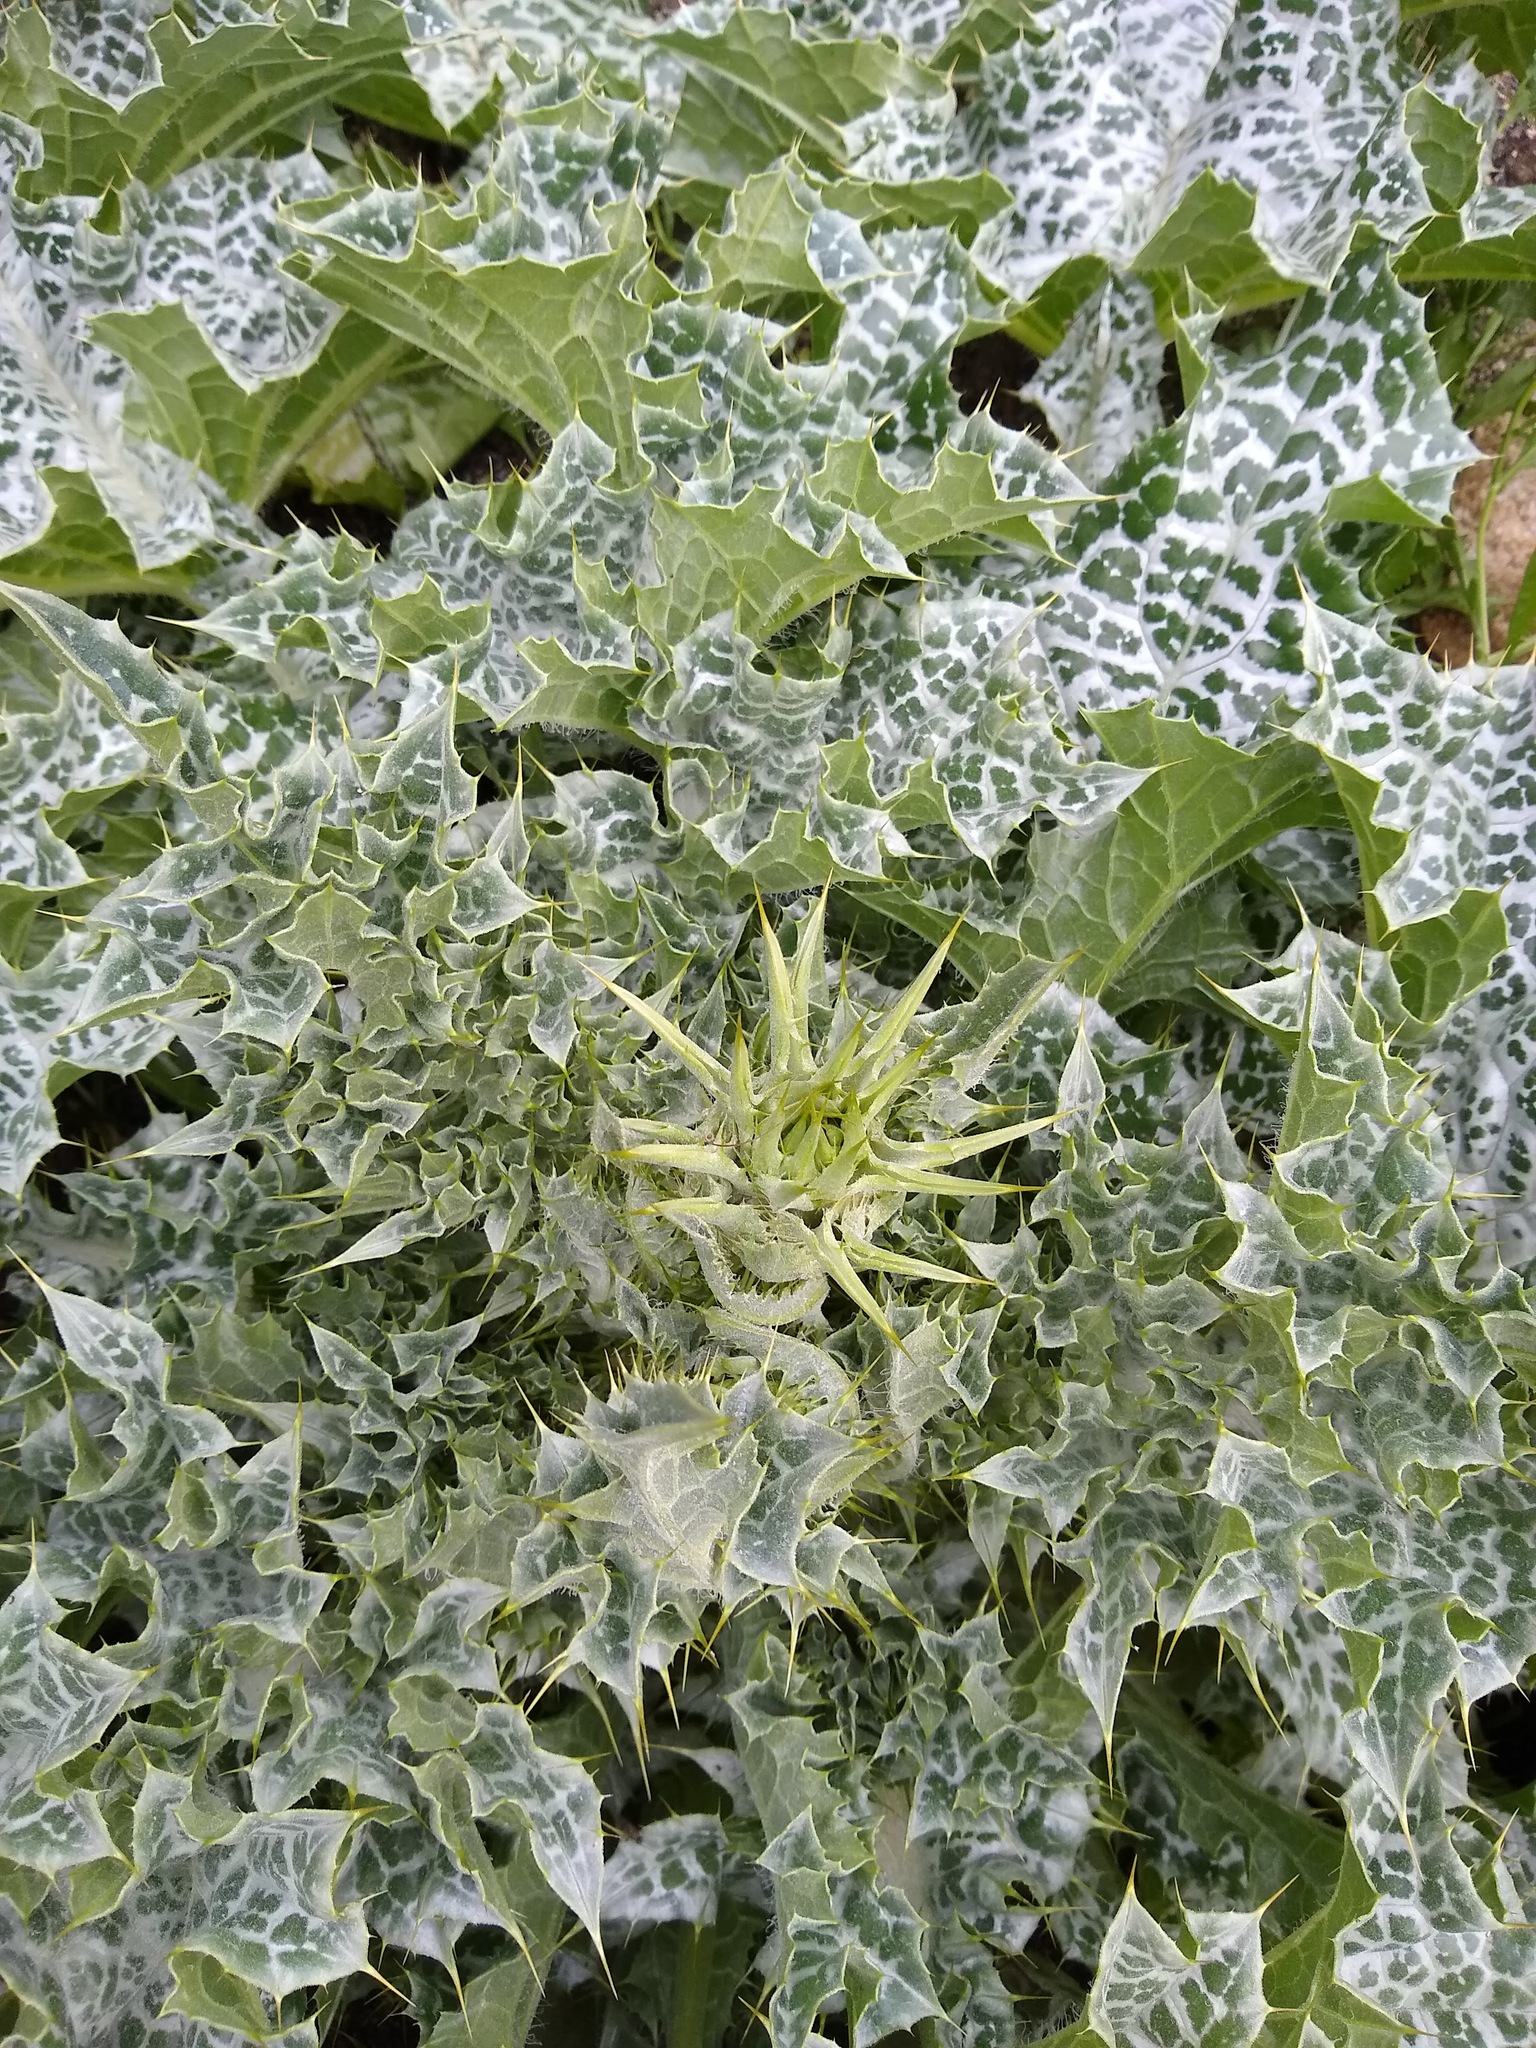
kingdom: Plantae
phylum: Tracheophyta
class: Magnoliopsida
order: Asterales
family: Asteraceae
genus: Silybum
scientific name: Silybum marianum
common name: Milk thistle
